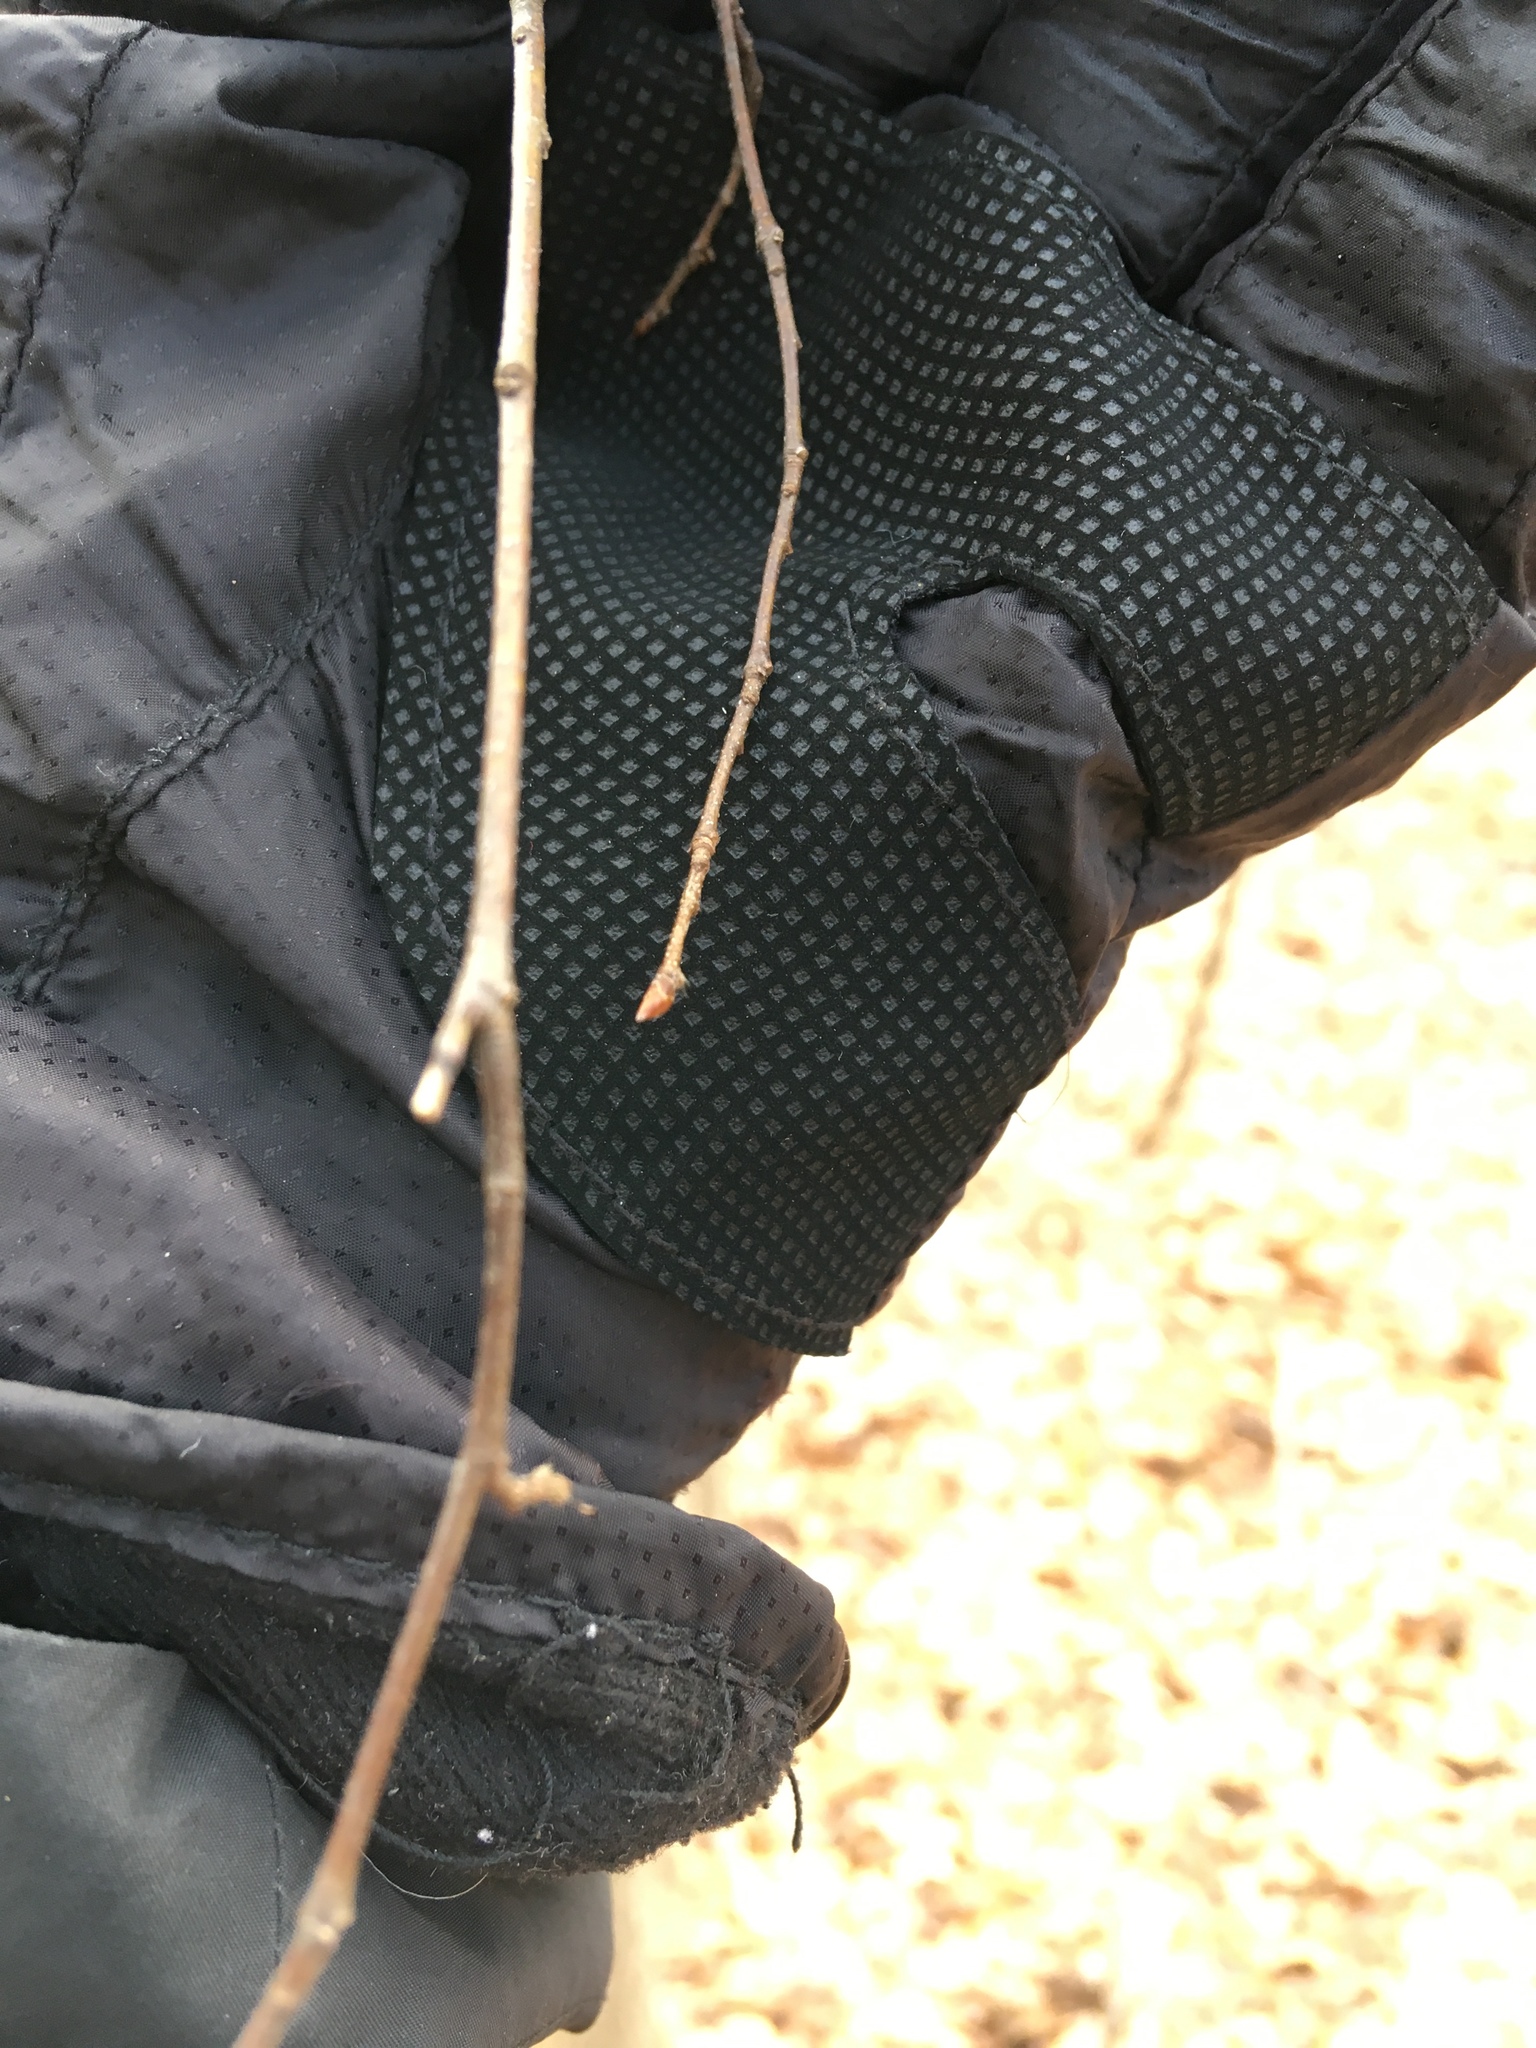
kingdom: Plantae
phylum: Tracheophyta
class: Magnoliopsida
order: Fagales
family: Betulaceae
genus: Carpinus
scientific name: Carpinus caroliniana
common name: American hornbeam
